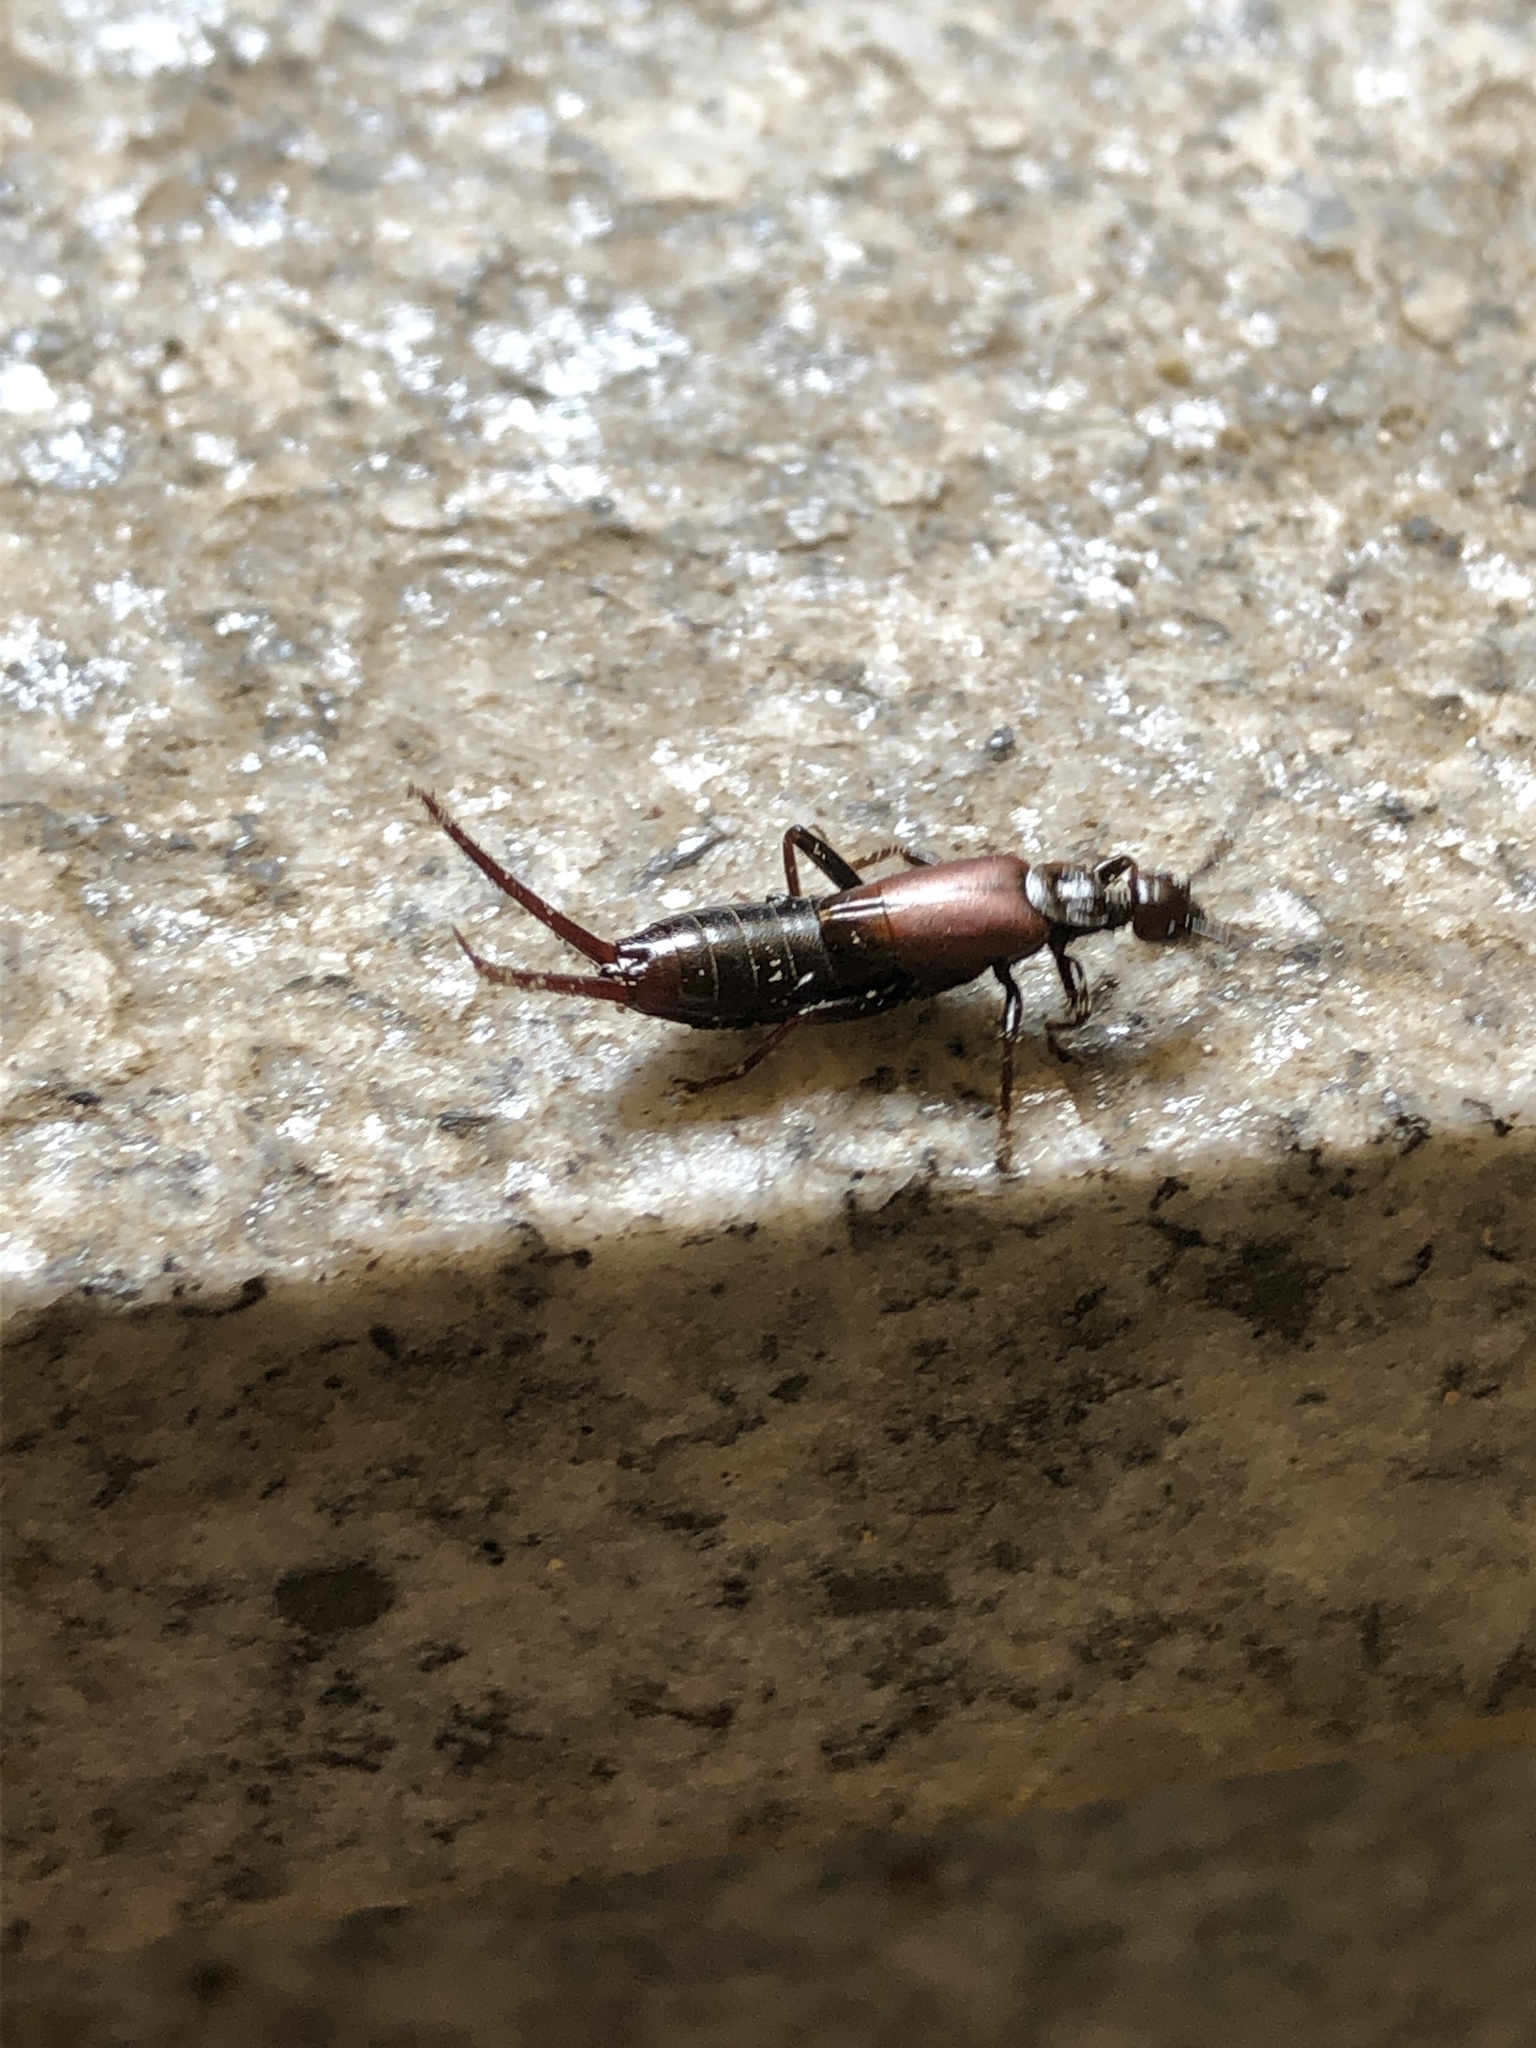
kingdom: Animalia
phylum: Arthropoda
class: Insecta
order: Dermaptera
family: Forficulidae
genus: Timomenus
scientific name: Timomenus komarovi
